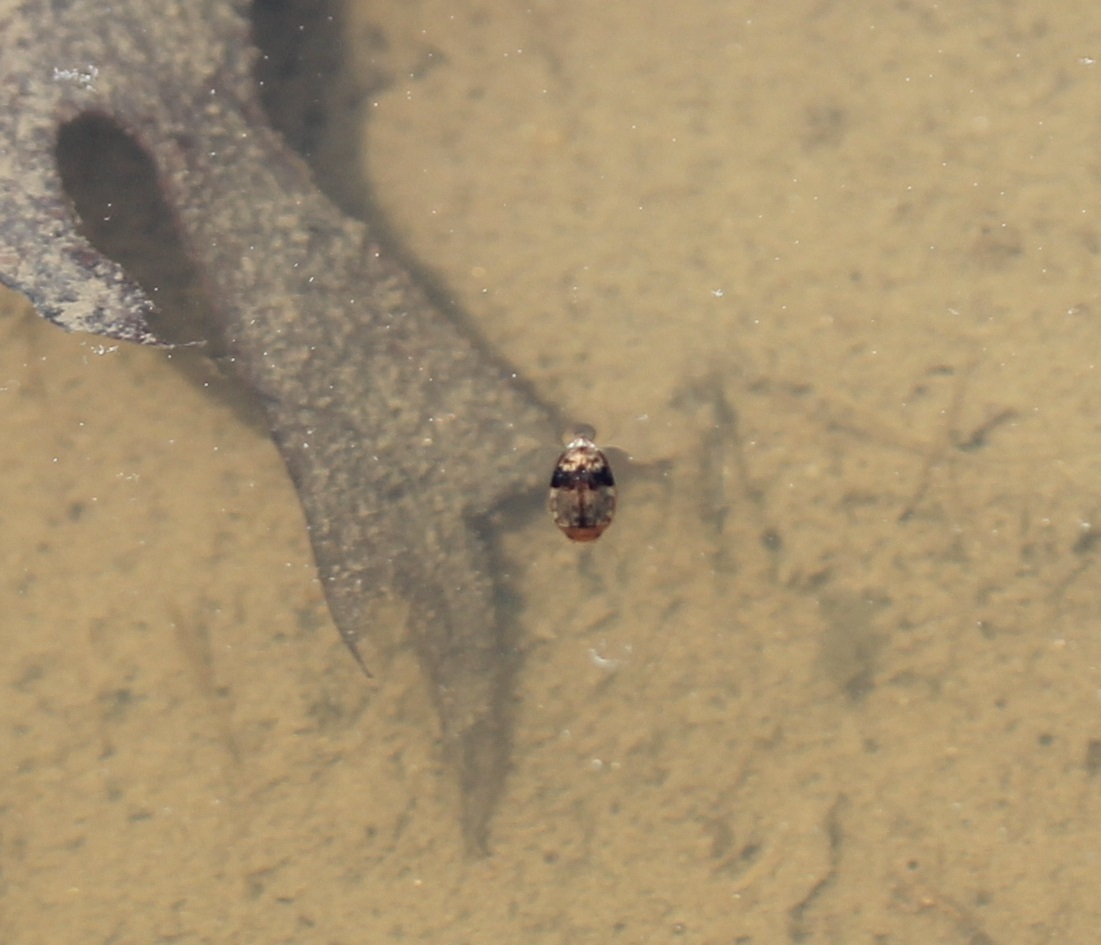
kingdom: Animalia
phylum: Arthropoda
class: Insecta
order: Coleoptera
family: Dytiscidae
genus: Laccophilus
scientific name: Laccophilus fasciatus
